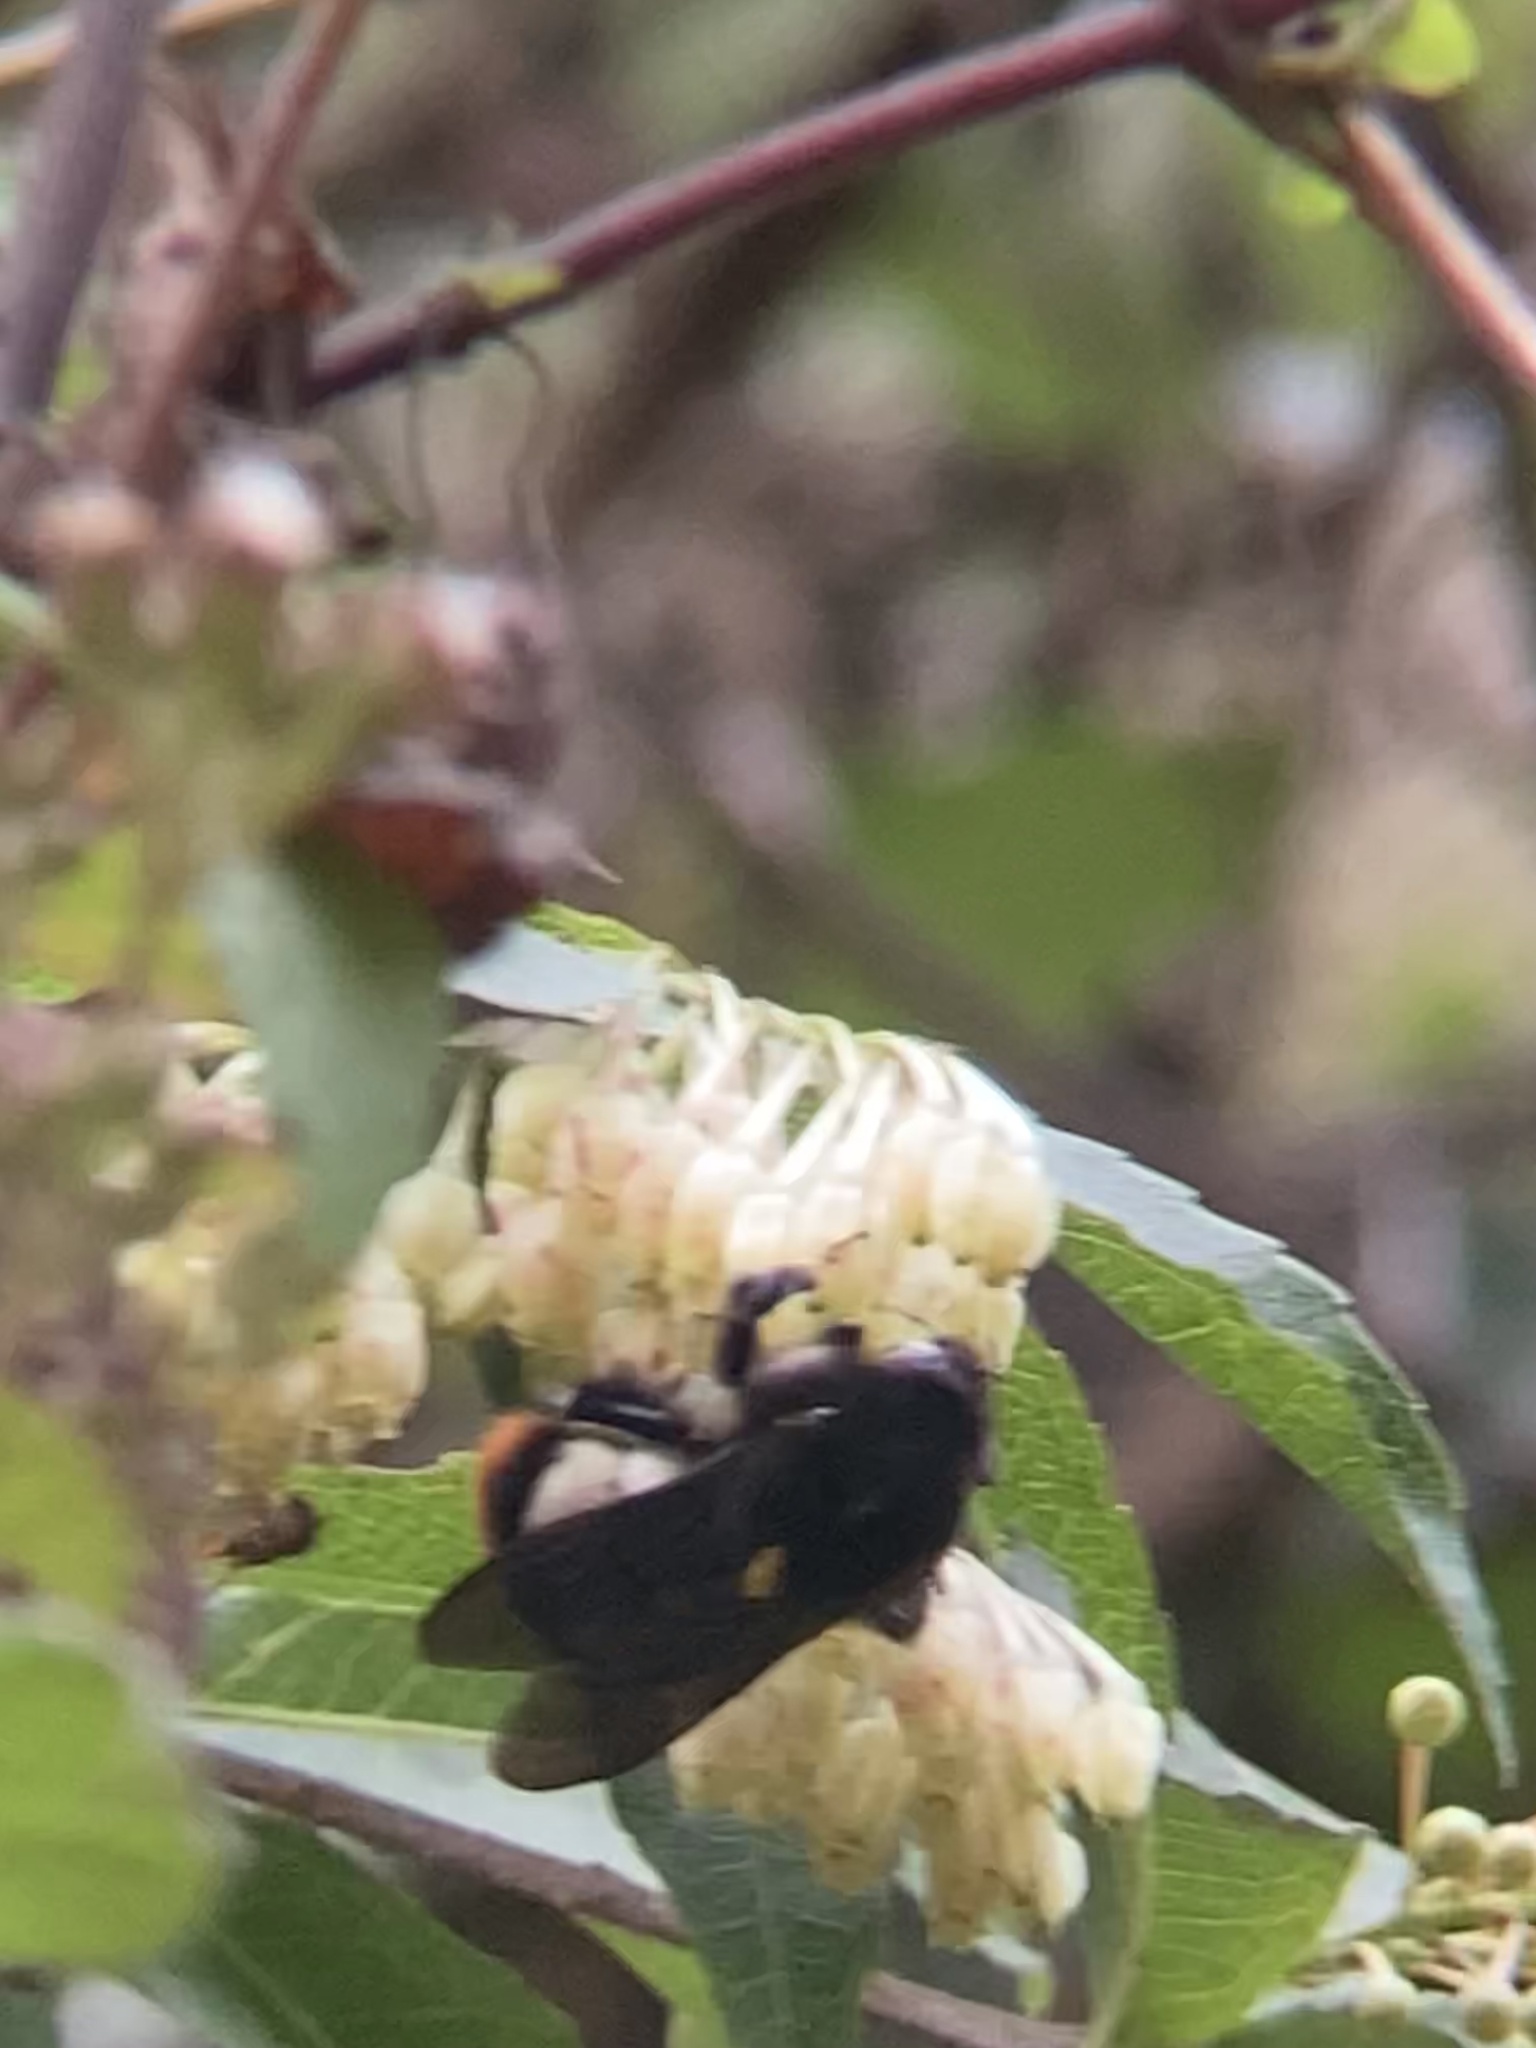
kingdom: Plantae
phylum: Tracheophyta
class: Magnoliopsida
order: Ericales
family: Ericaceae
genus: Vaccinium
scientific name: Vaccinium vacciniaceum
